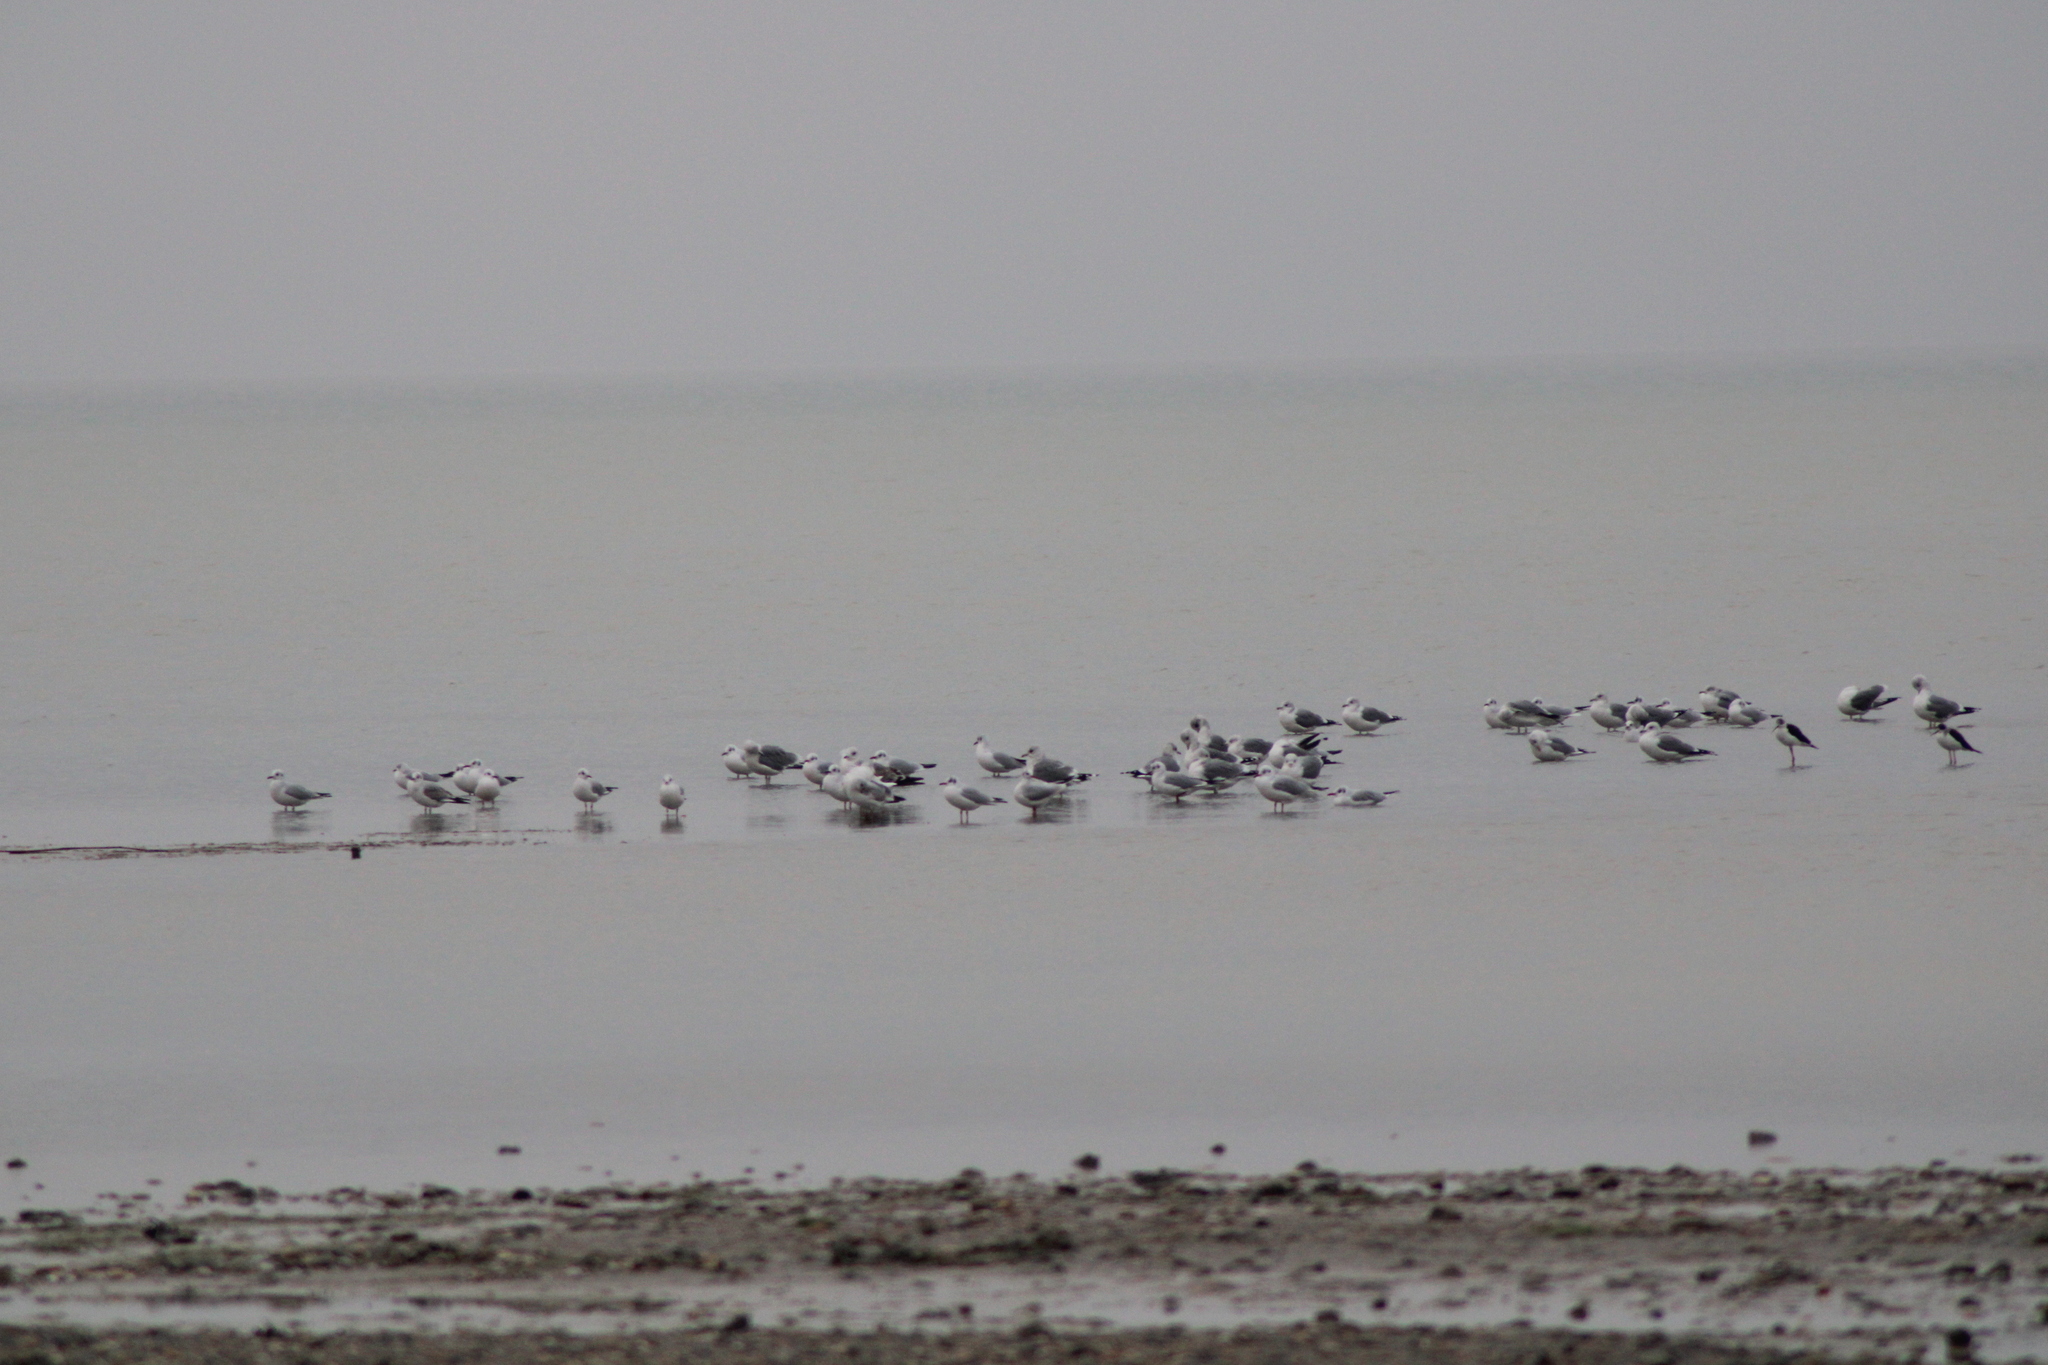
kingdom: Animalia
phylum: Chordata
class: Aves
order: Charadriiformes
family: Laridae
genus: Chroicocephalus
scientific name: Chroicocephalus ridibundus
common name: Black-headed gull
